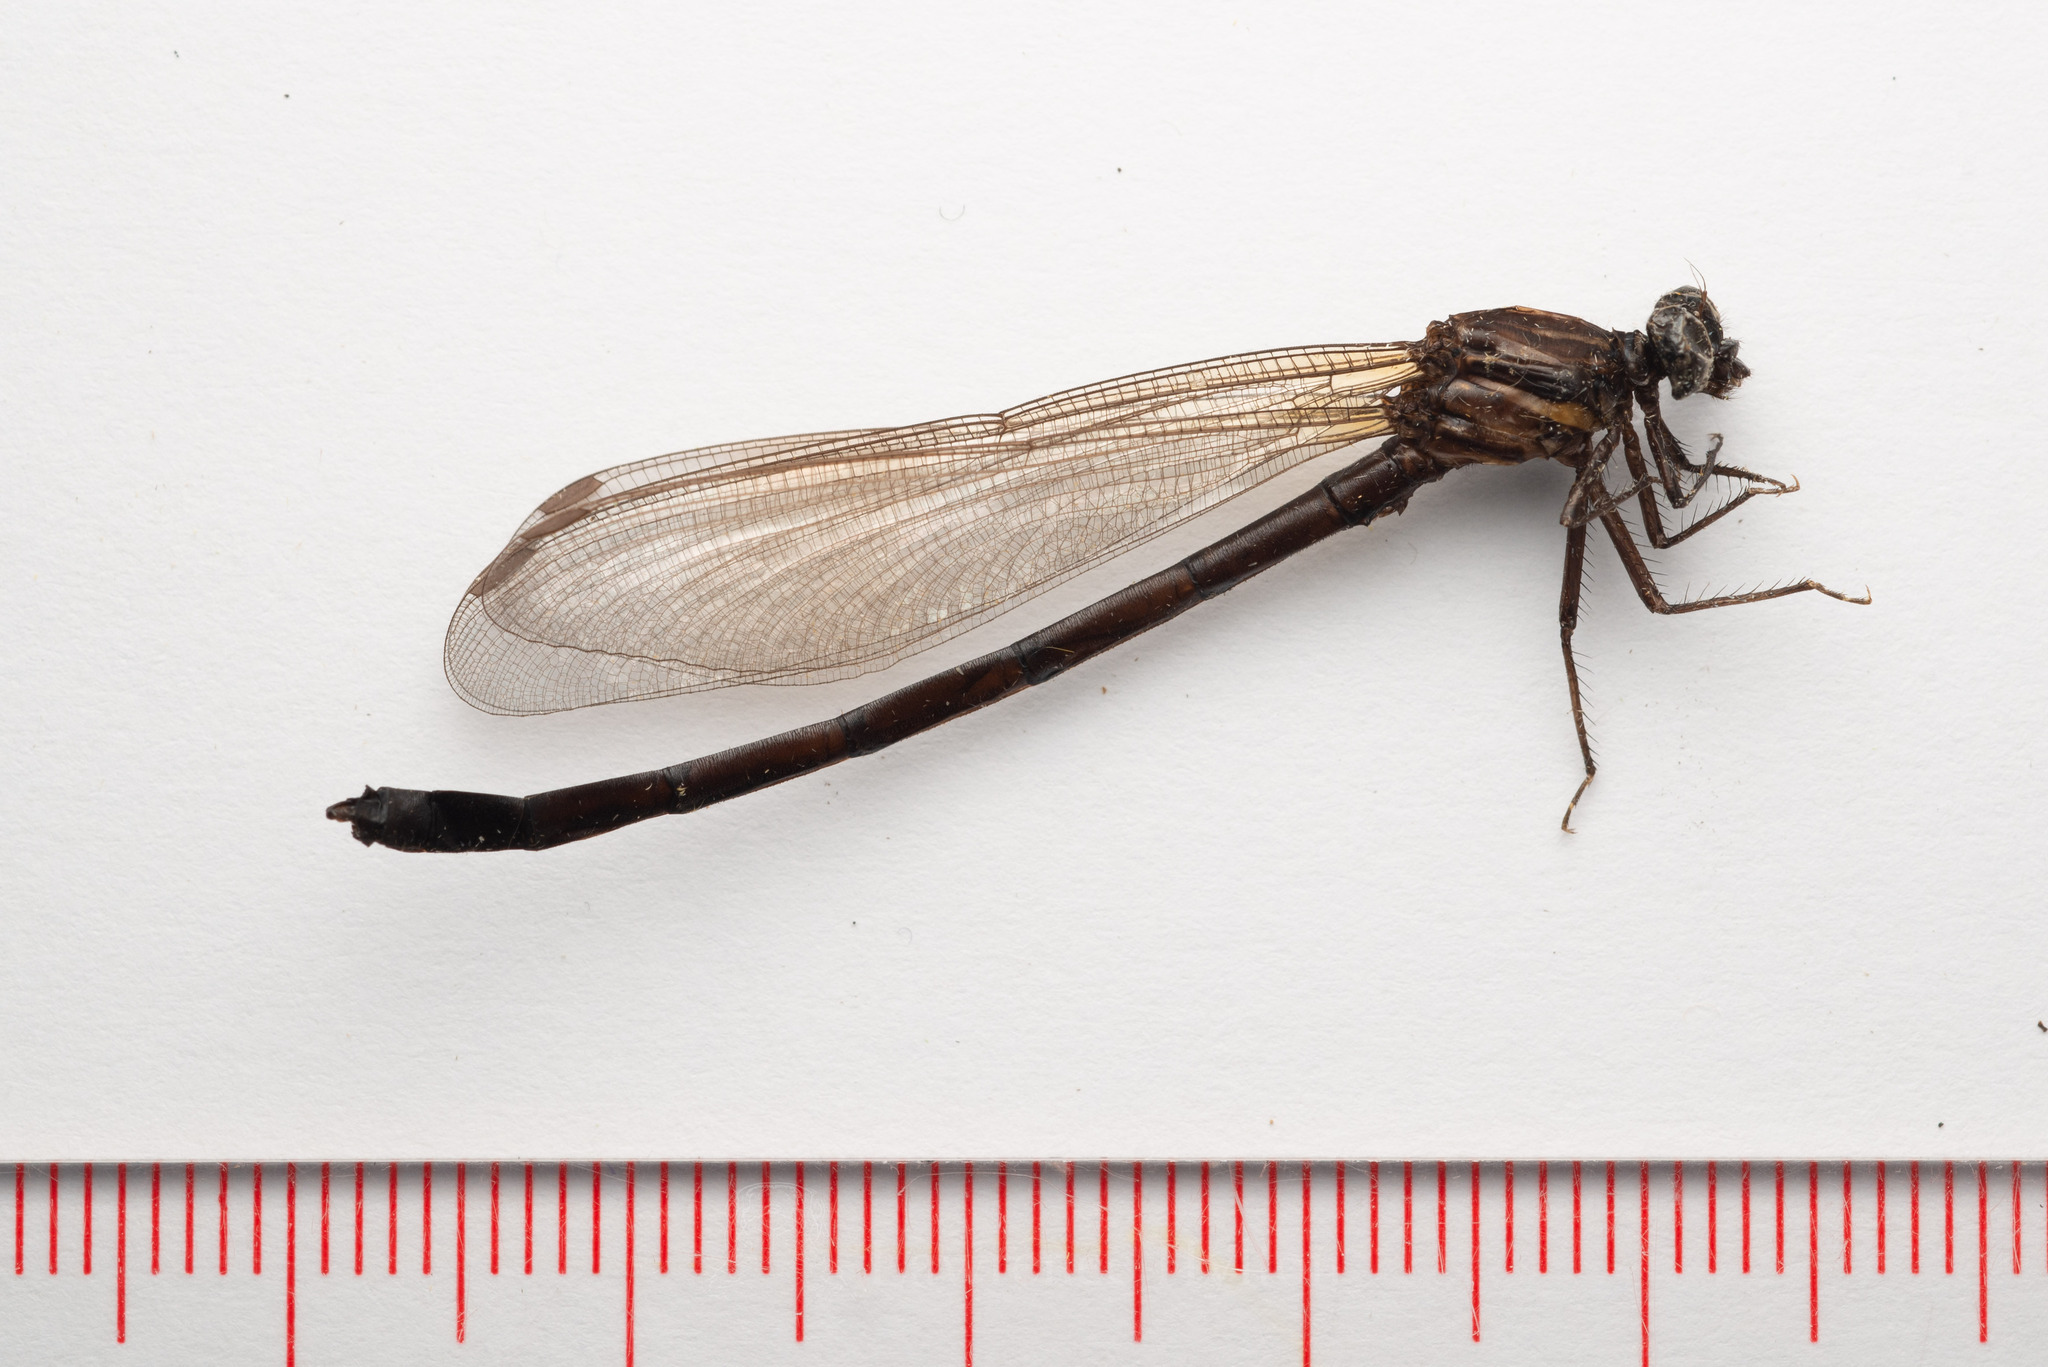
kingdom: Animalia
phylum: Arthropoda
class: Insecta
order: Odonata
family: Euphaeidae
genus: Euphaea
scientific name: Euphaea decorata
